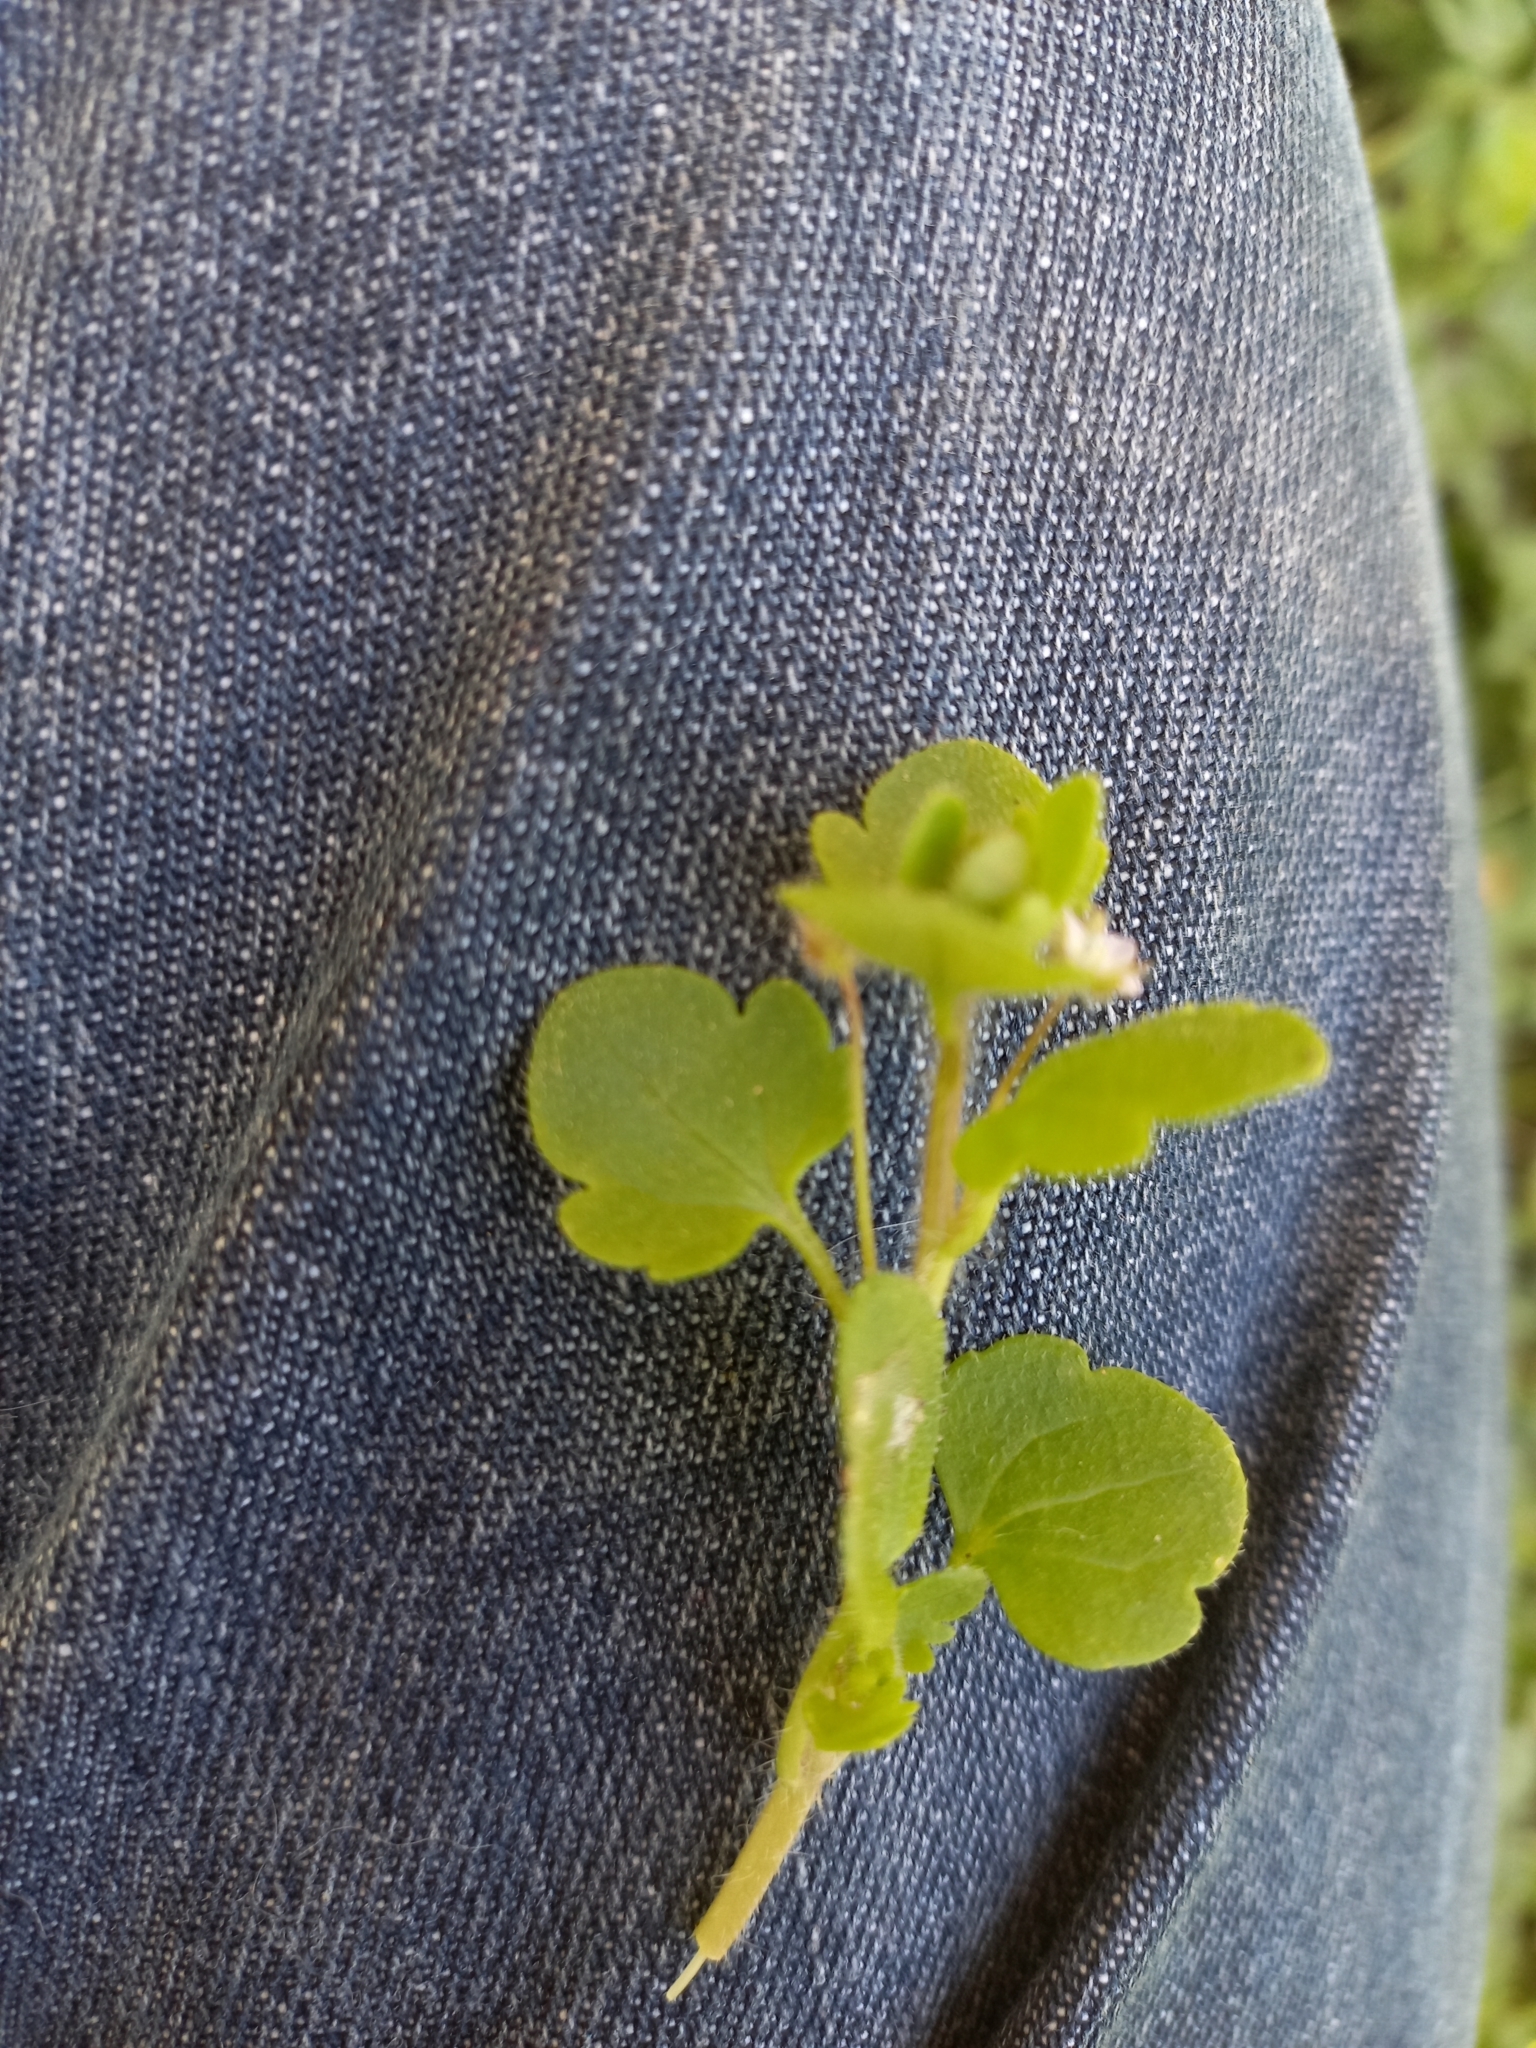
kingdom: Plantae
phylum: Tracheophyta
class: Magnoliopsida
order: Lamiales
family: Plantaginaceae
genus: Veronica
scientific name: Veronica hederifolia
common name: Ivy-leaved speedwell
